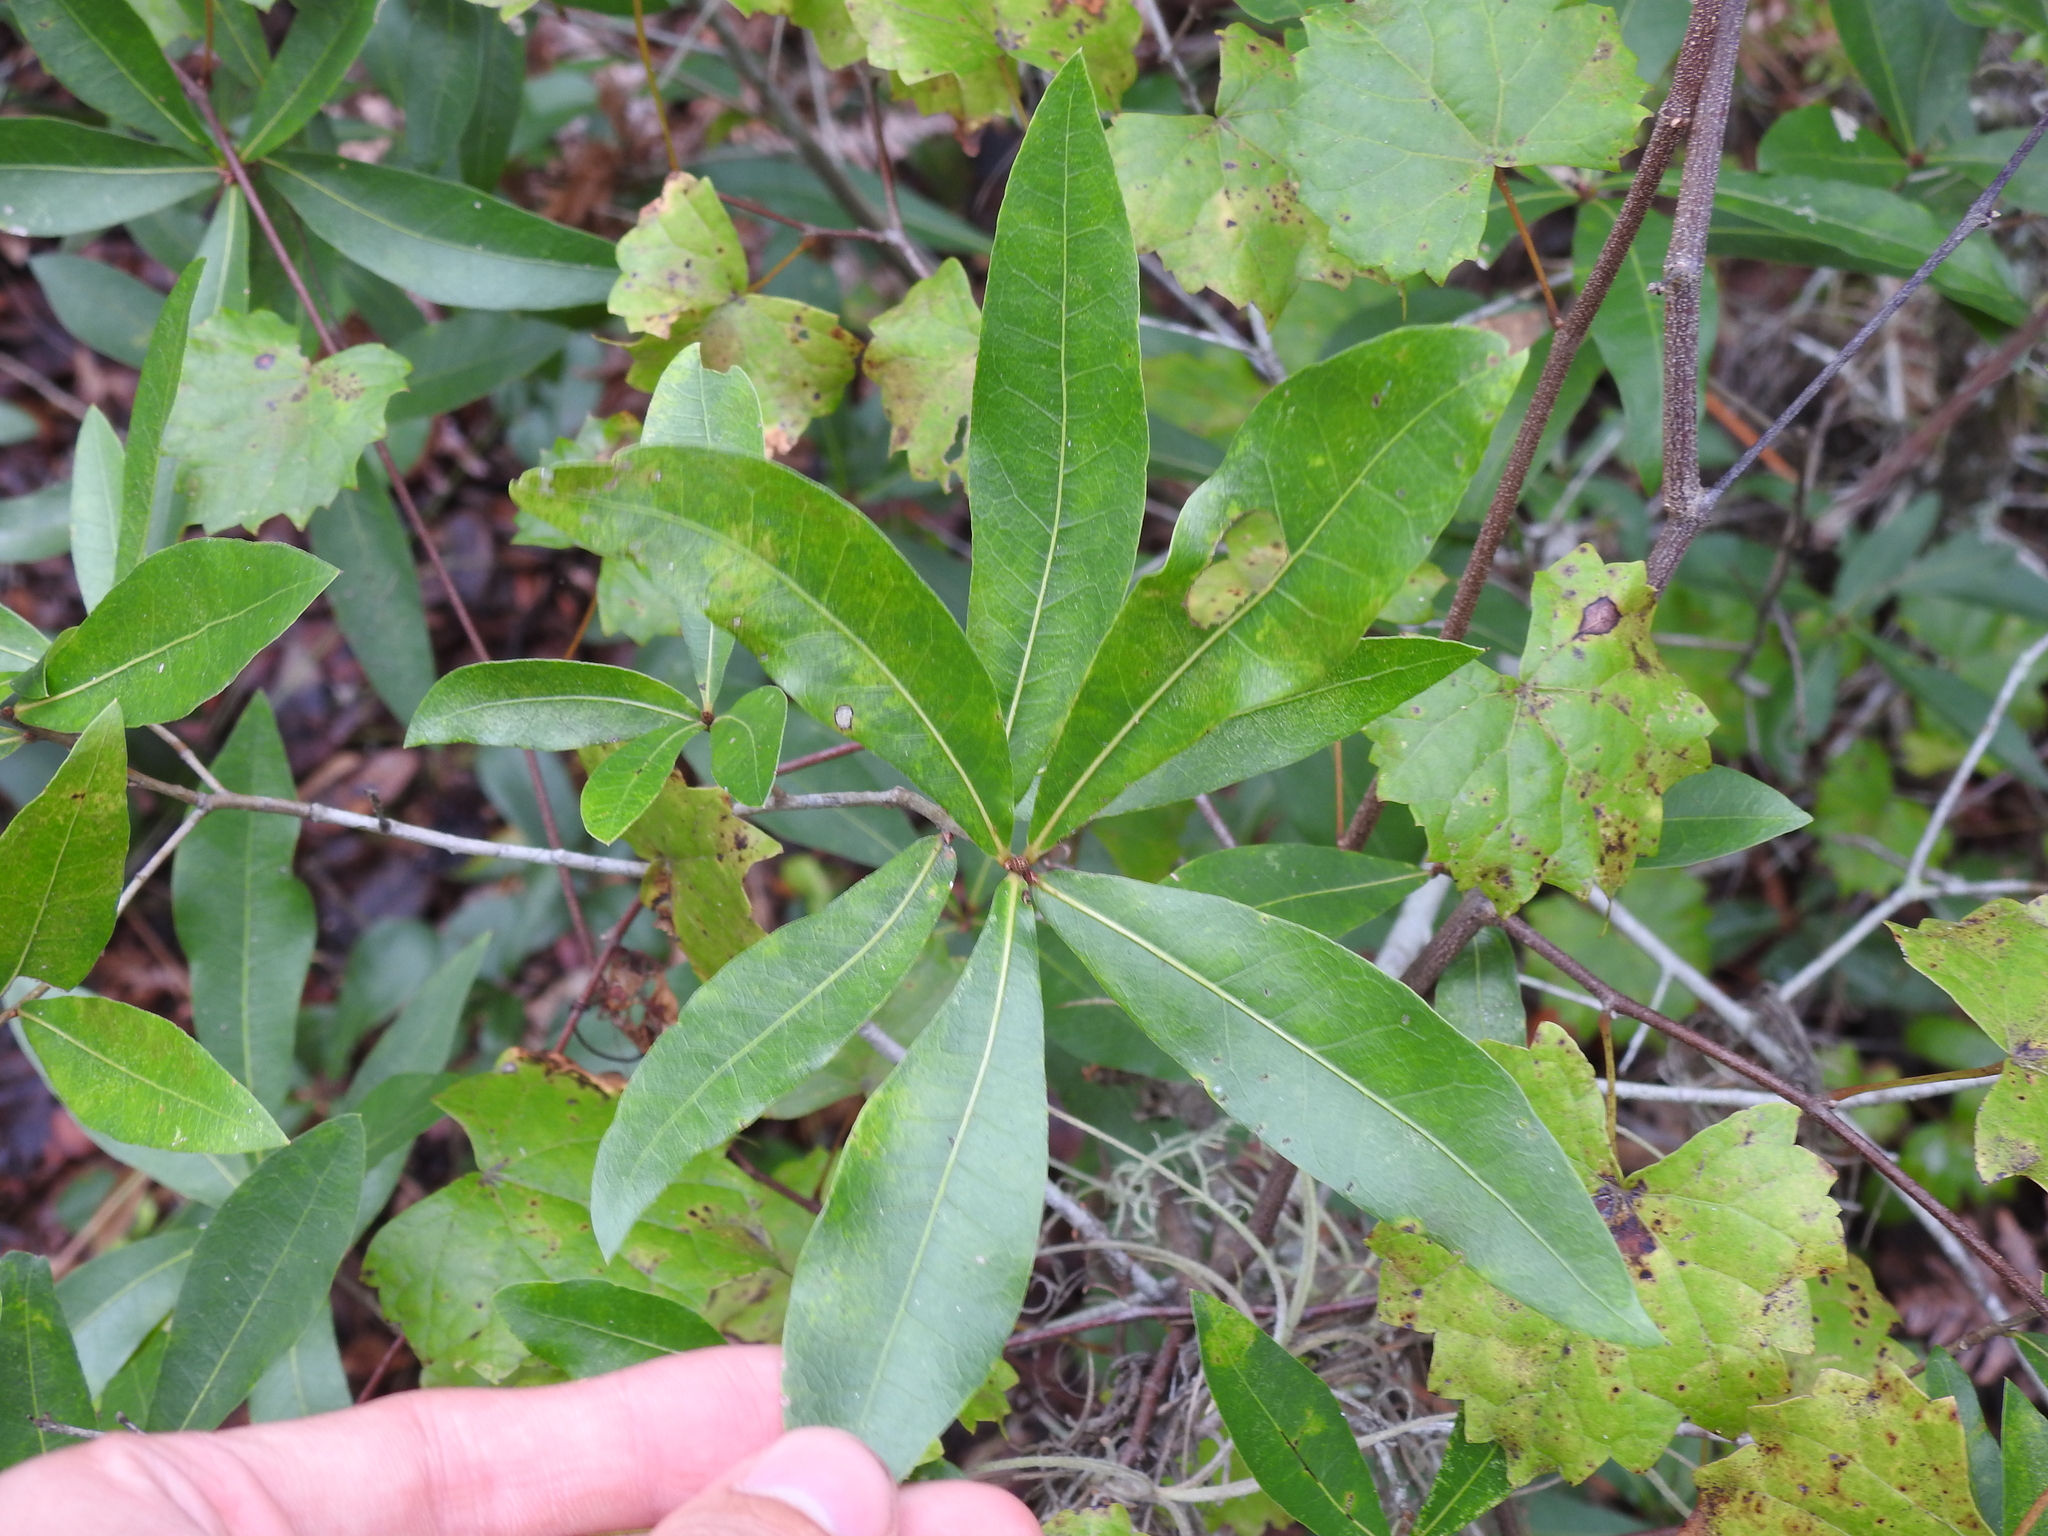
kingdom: Plantae
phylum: Tracheophyta
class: Magnoliopsida
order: Fagales
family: Fagaceae
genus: Quercus
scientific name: Quercus hemisphaerica
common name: Darlington oak
